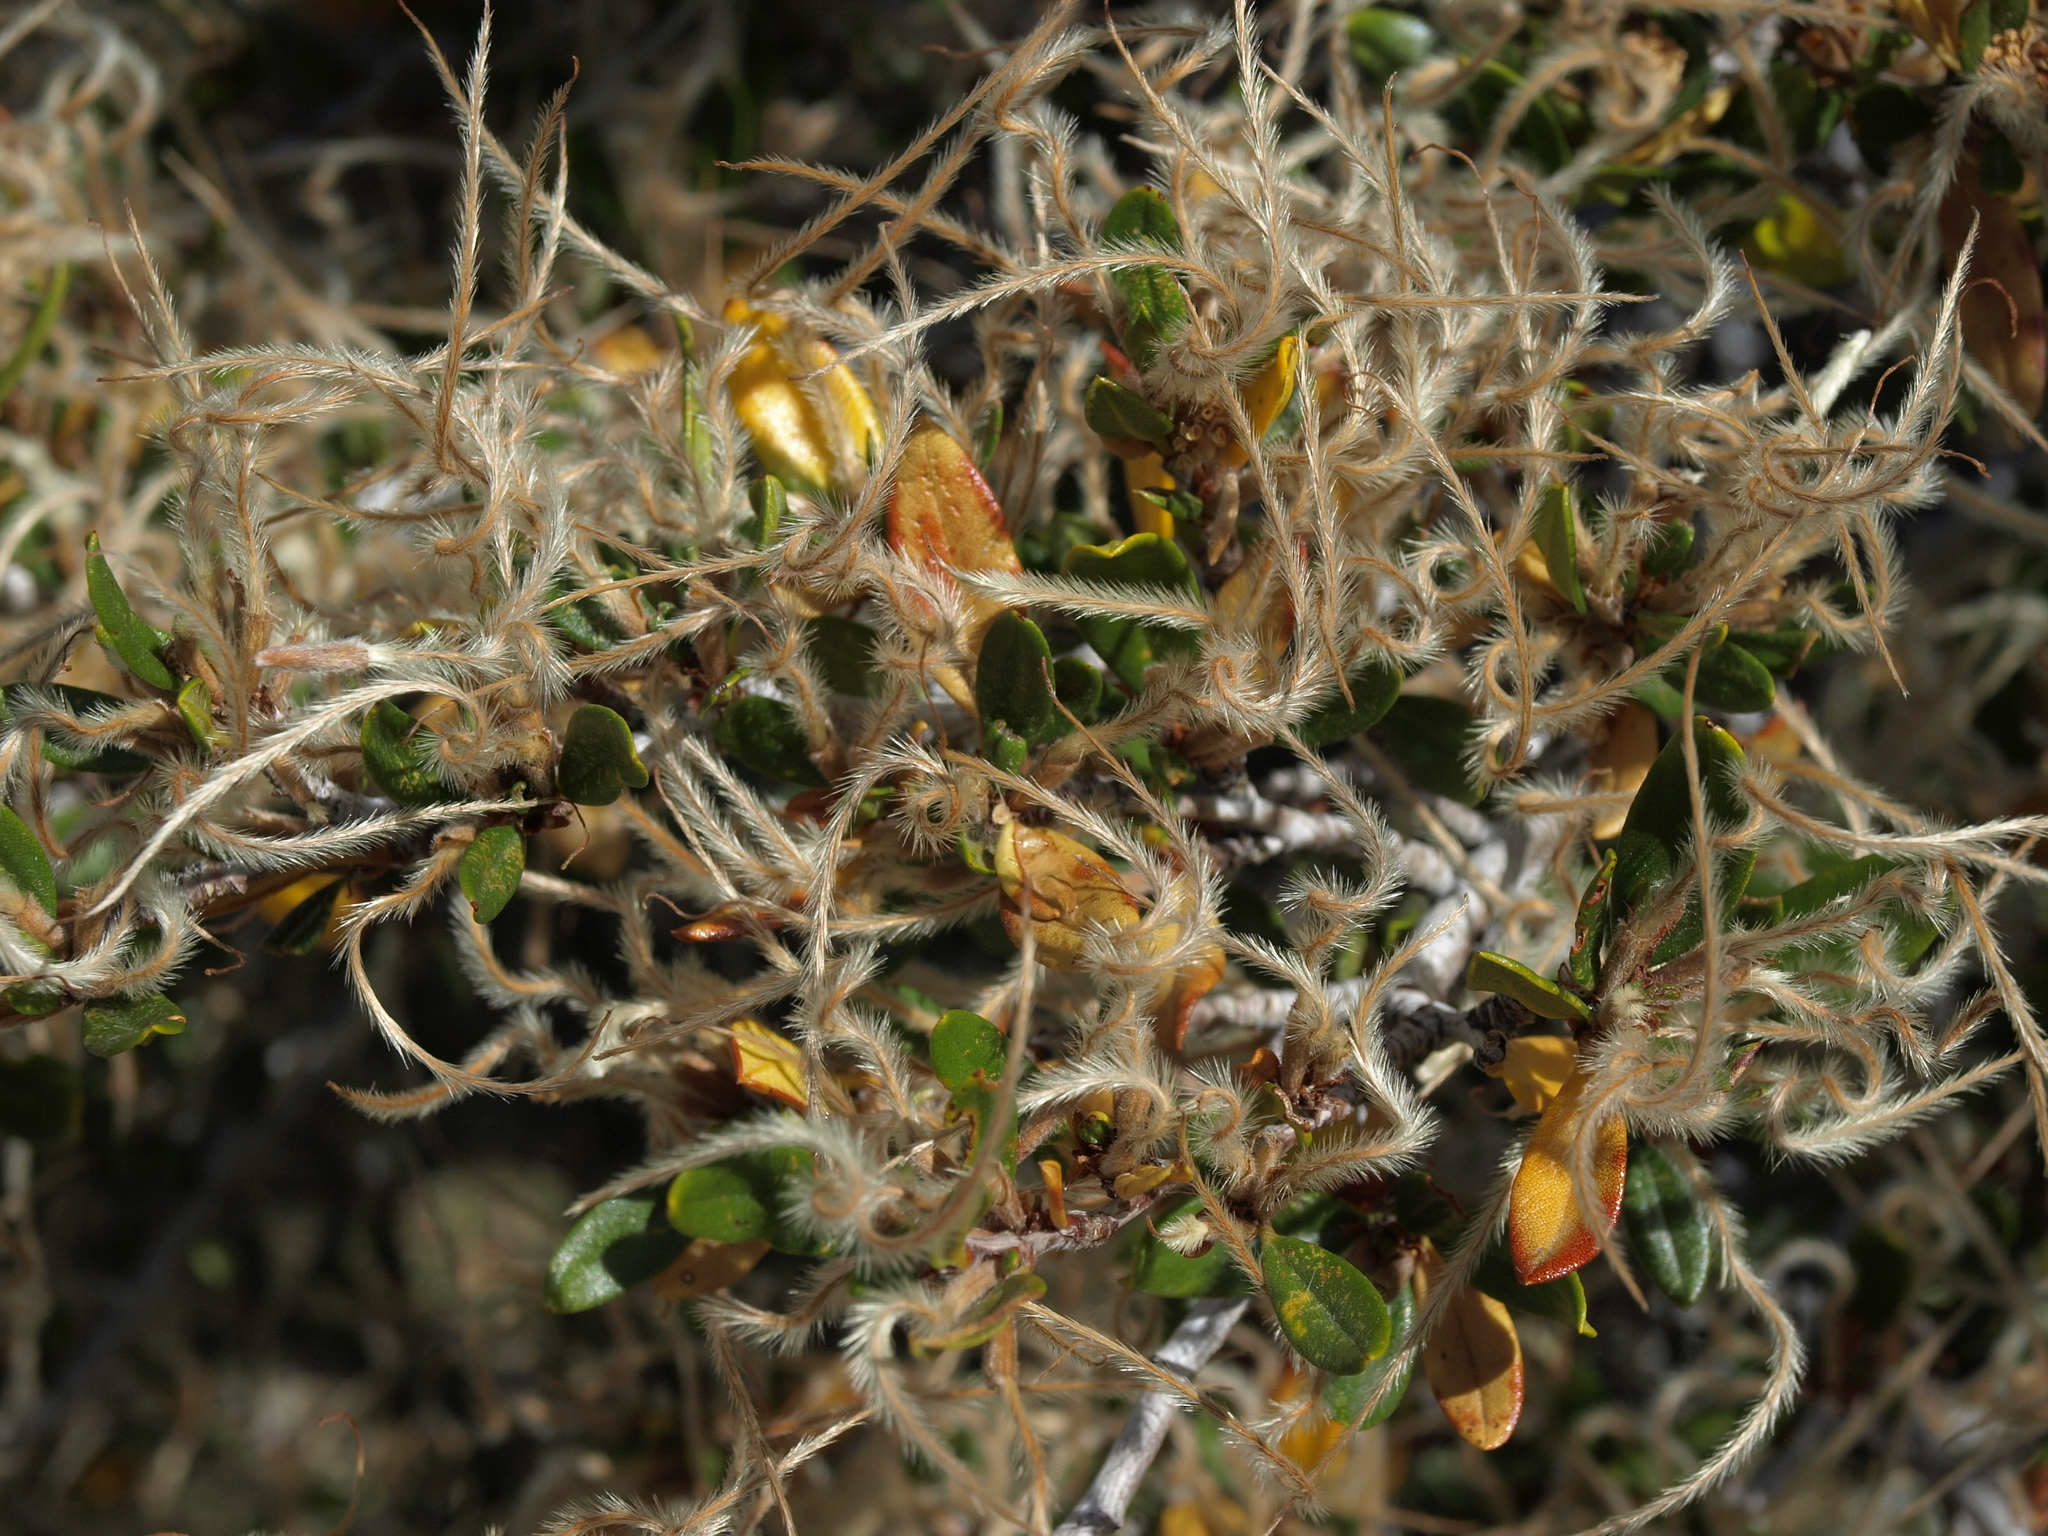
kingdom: Plantae
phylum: Tracheophyta
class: Magnoliopsida
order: Rosales
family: Rosaceae
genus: Cercocarpus
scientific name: Cercocarpus ledifolius
